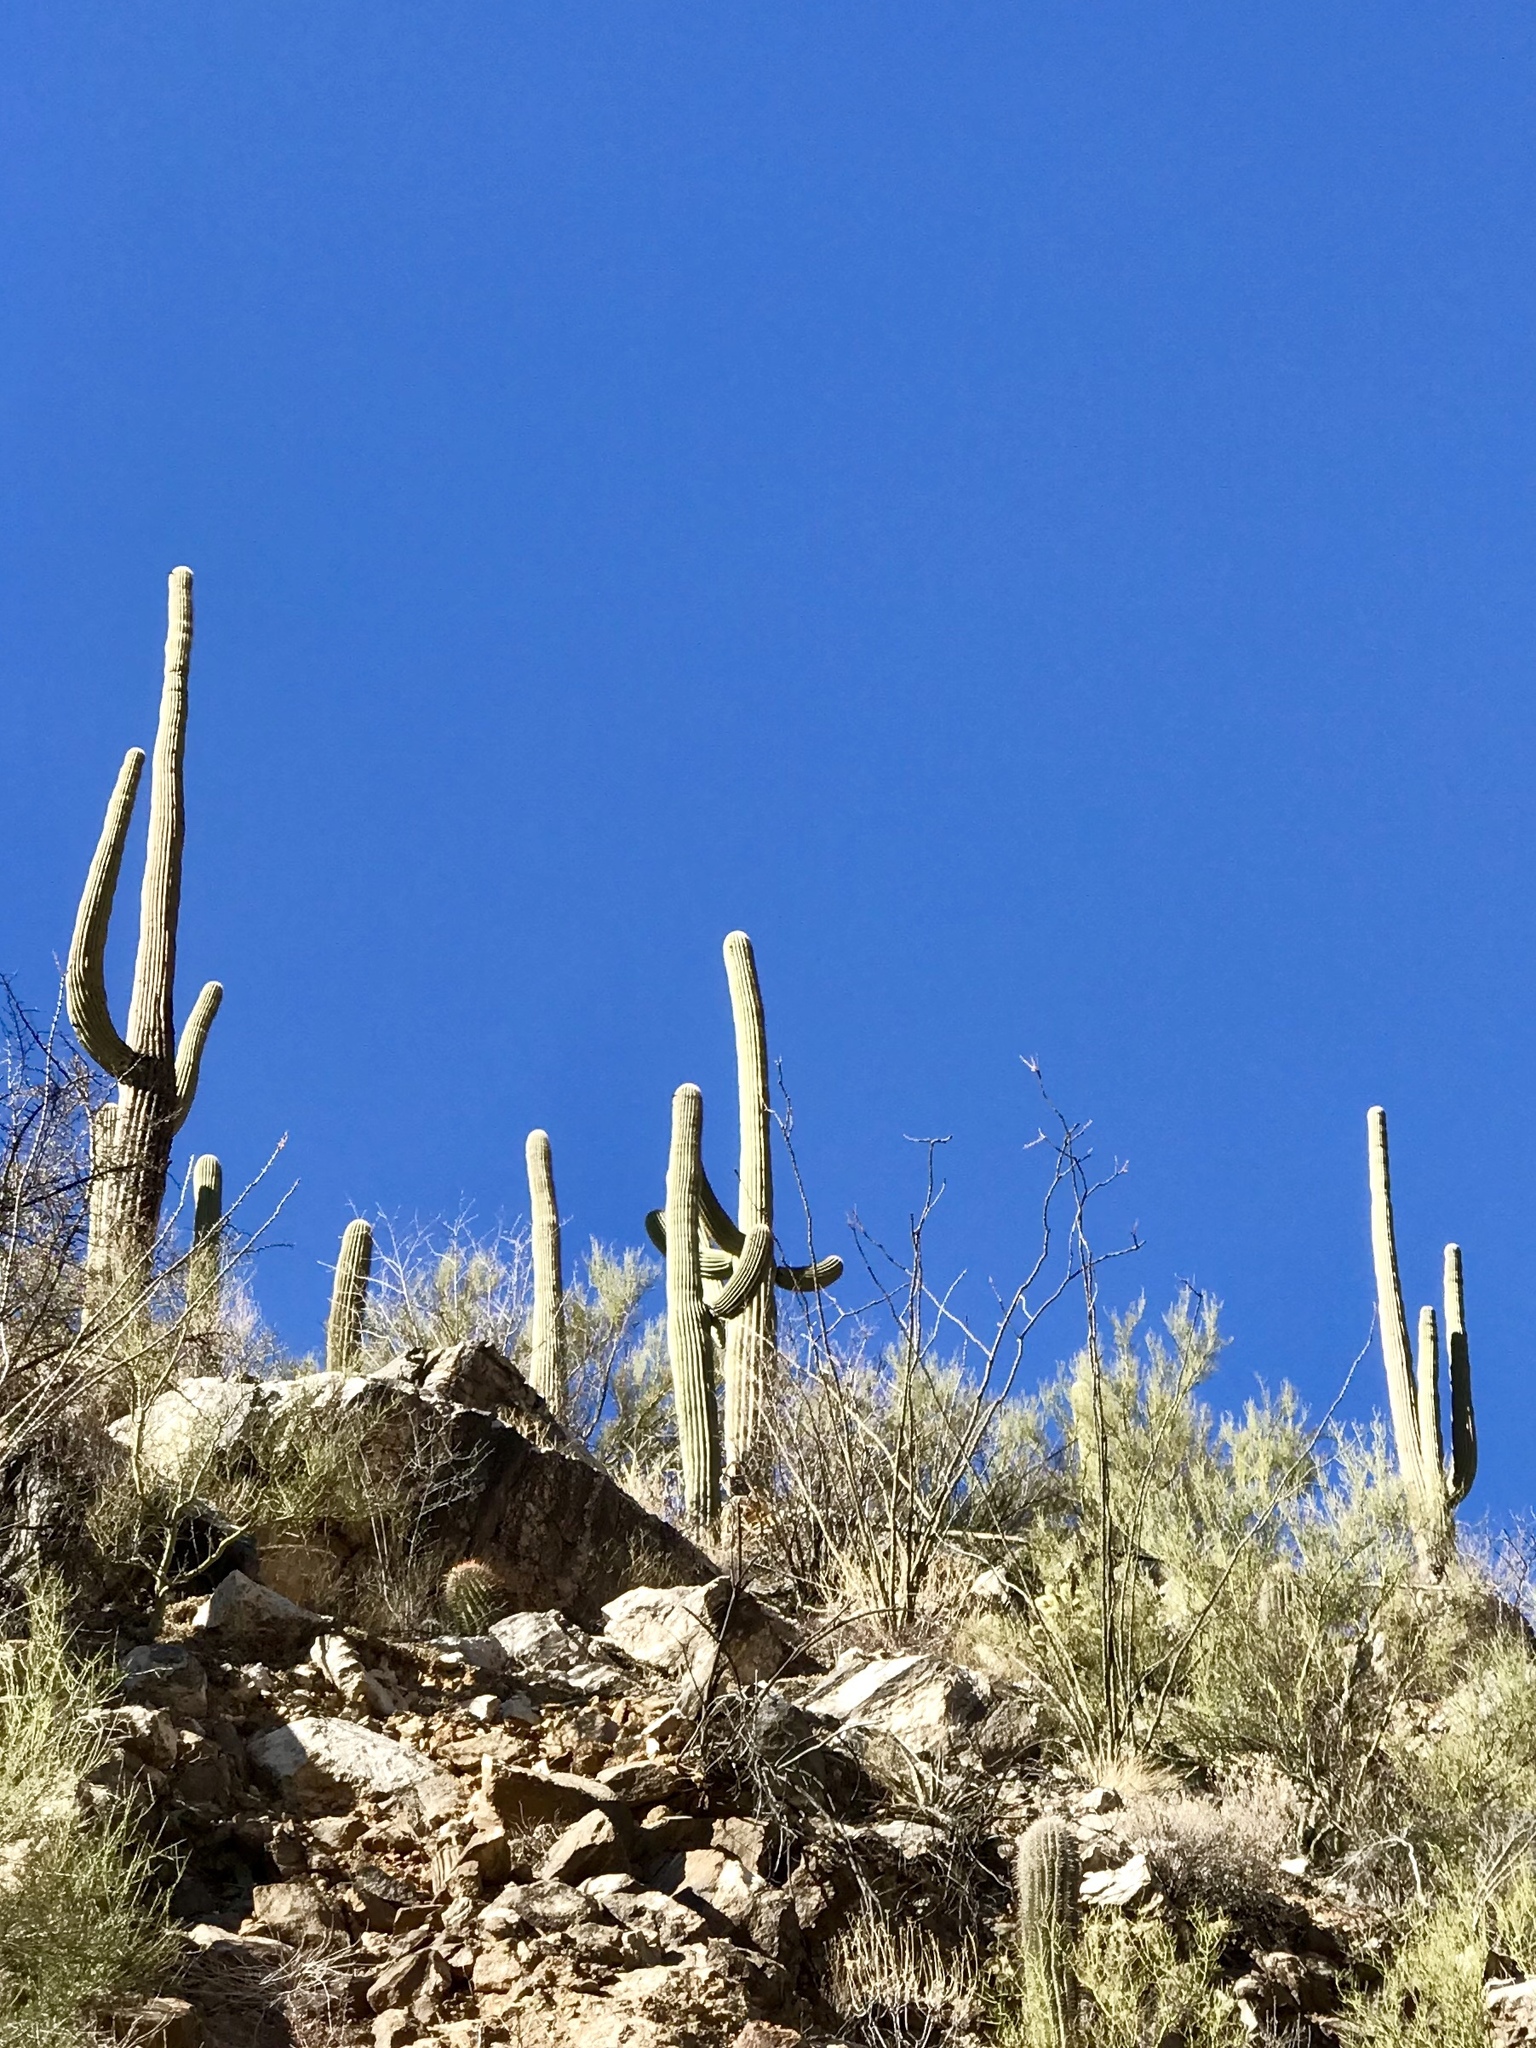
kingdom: Plantae
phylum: Tracheophyta
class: Magnoliopsida
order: Caryophyllales
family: Cactaceae
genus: Carnegiea
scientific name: Carnegiea gigantea
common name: Saguaro
